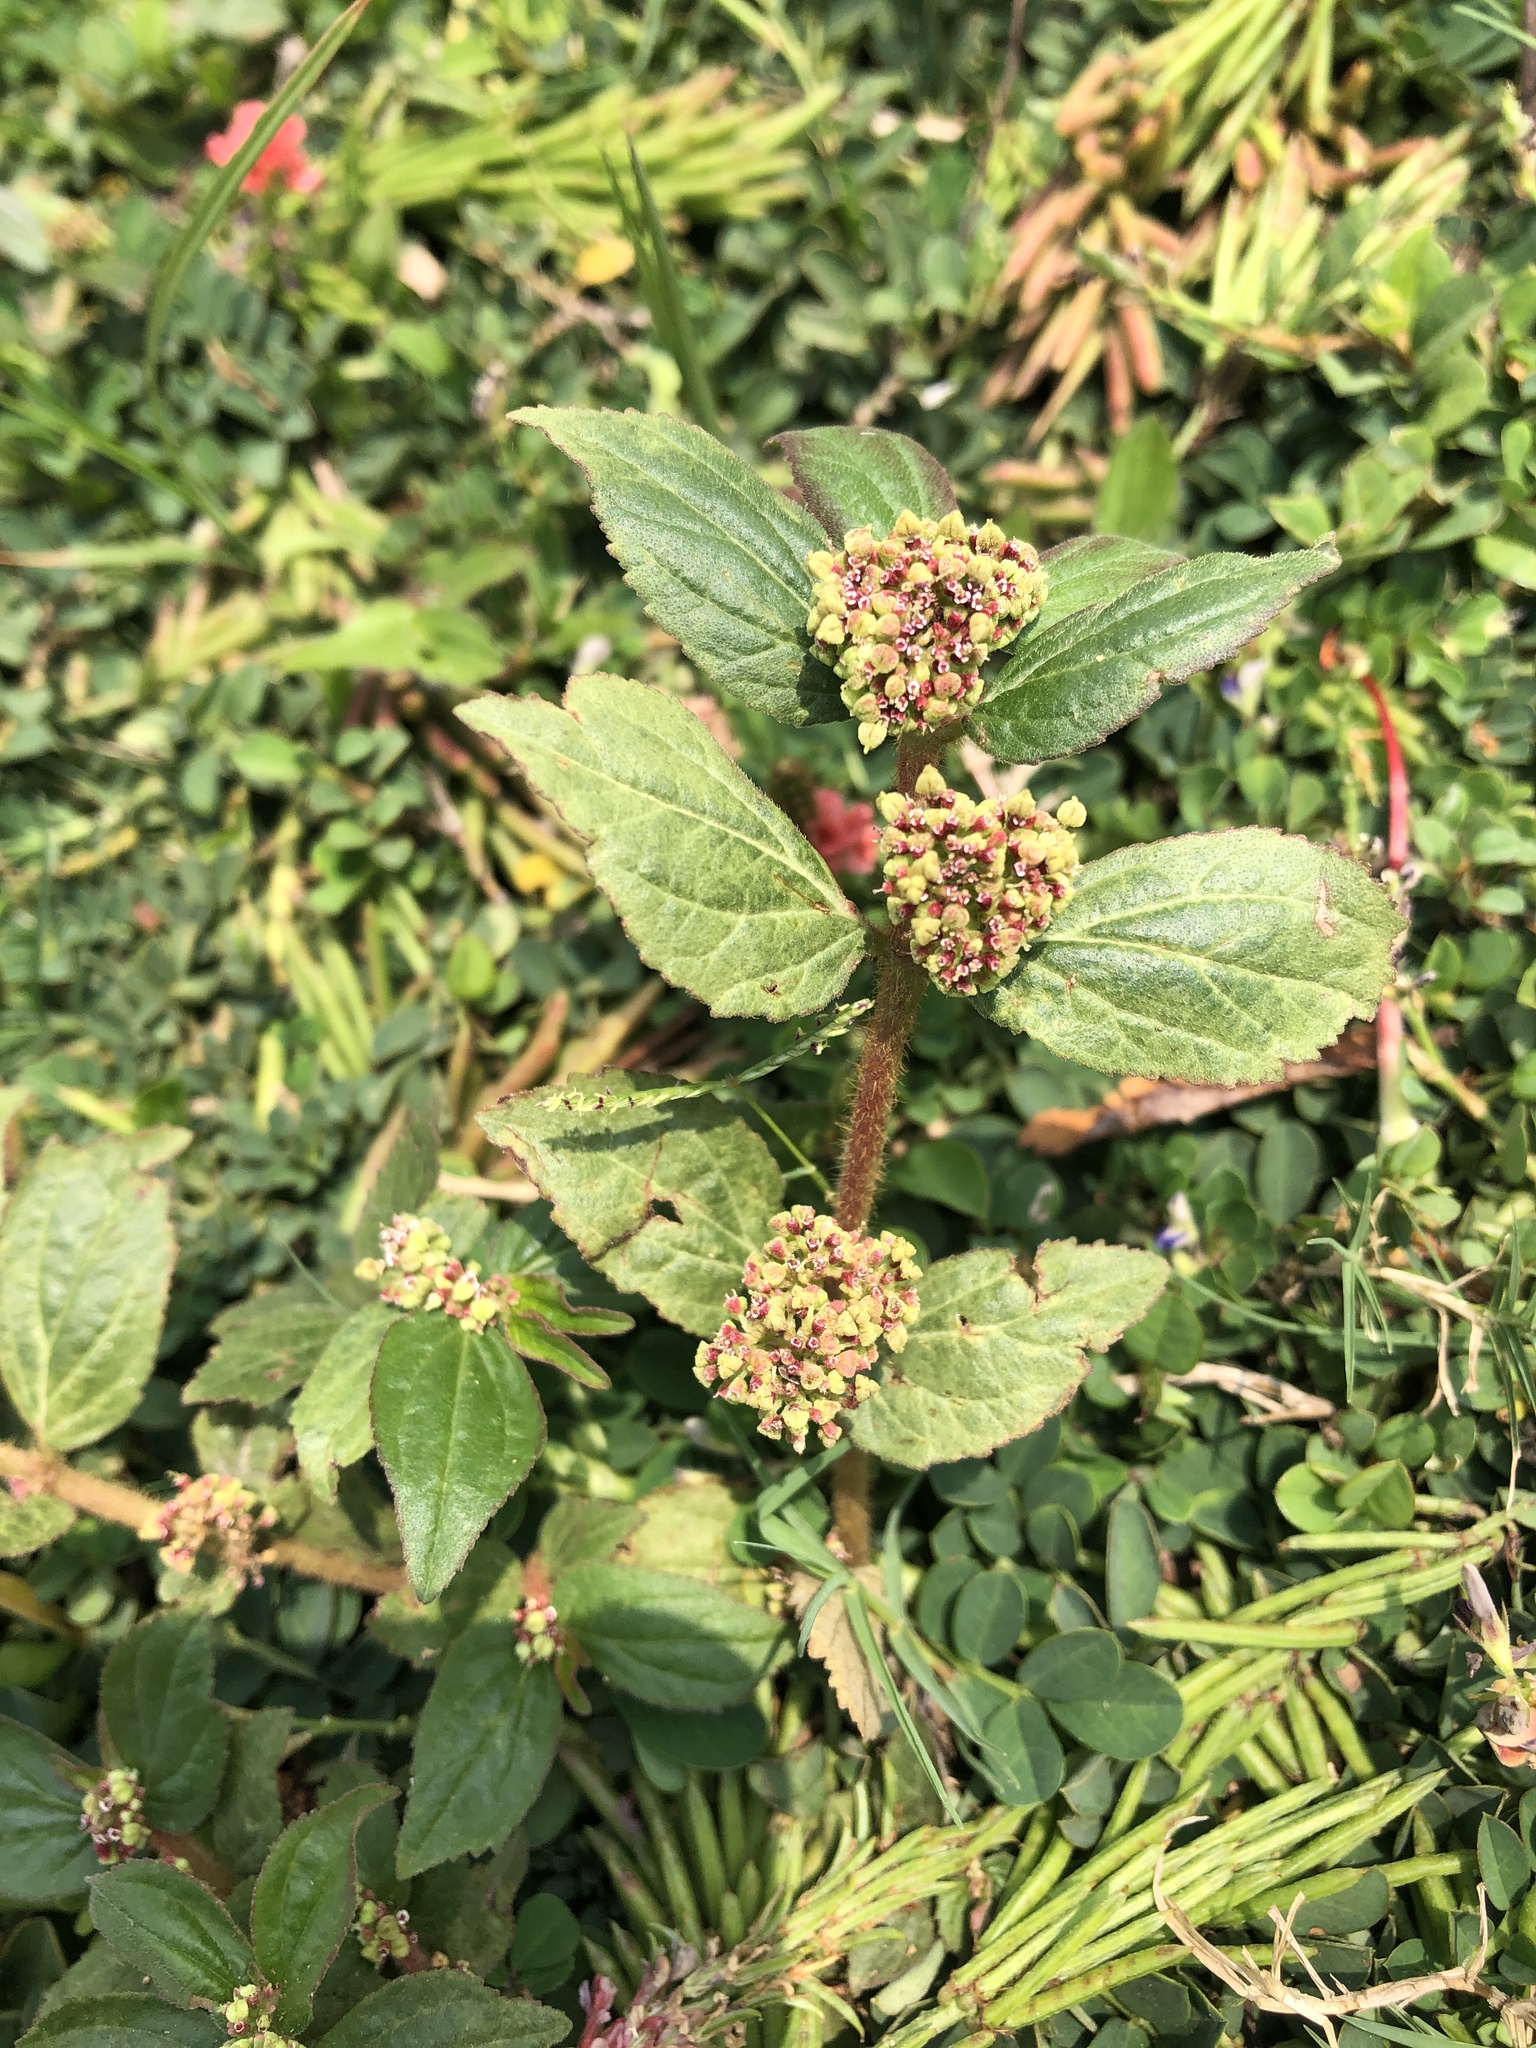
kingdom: Plantae
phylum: Tracheophyta
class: Magnoliopsida
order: Malpighiales
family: Euphorbiaceae
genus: Euphorbia
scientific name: Euphorbia hirta
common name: Pillpod sandmat
